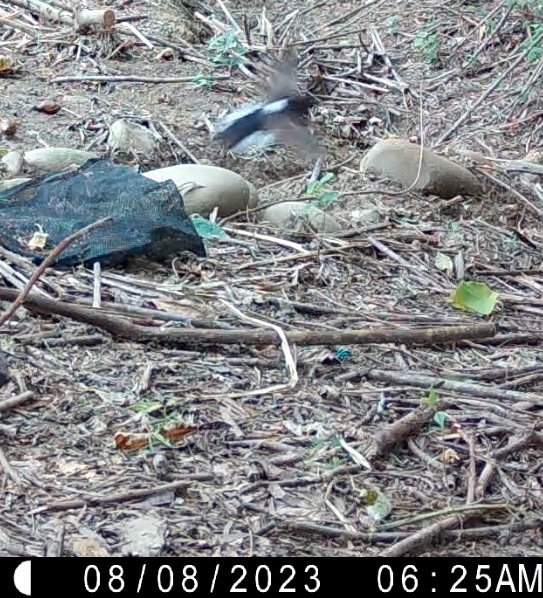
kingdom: Animalia
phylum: Chordata
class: Aves
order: Passeriformes
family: Muscicapidae
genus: Copsychus
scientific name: Copsychus malabaricus
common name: White-rumped shama
